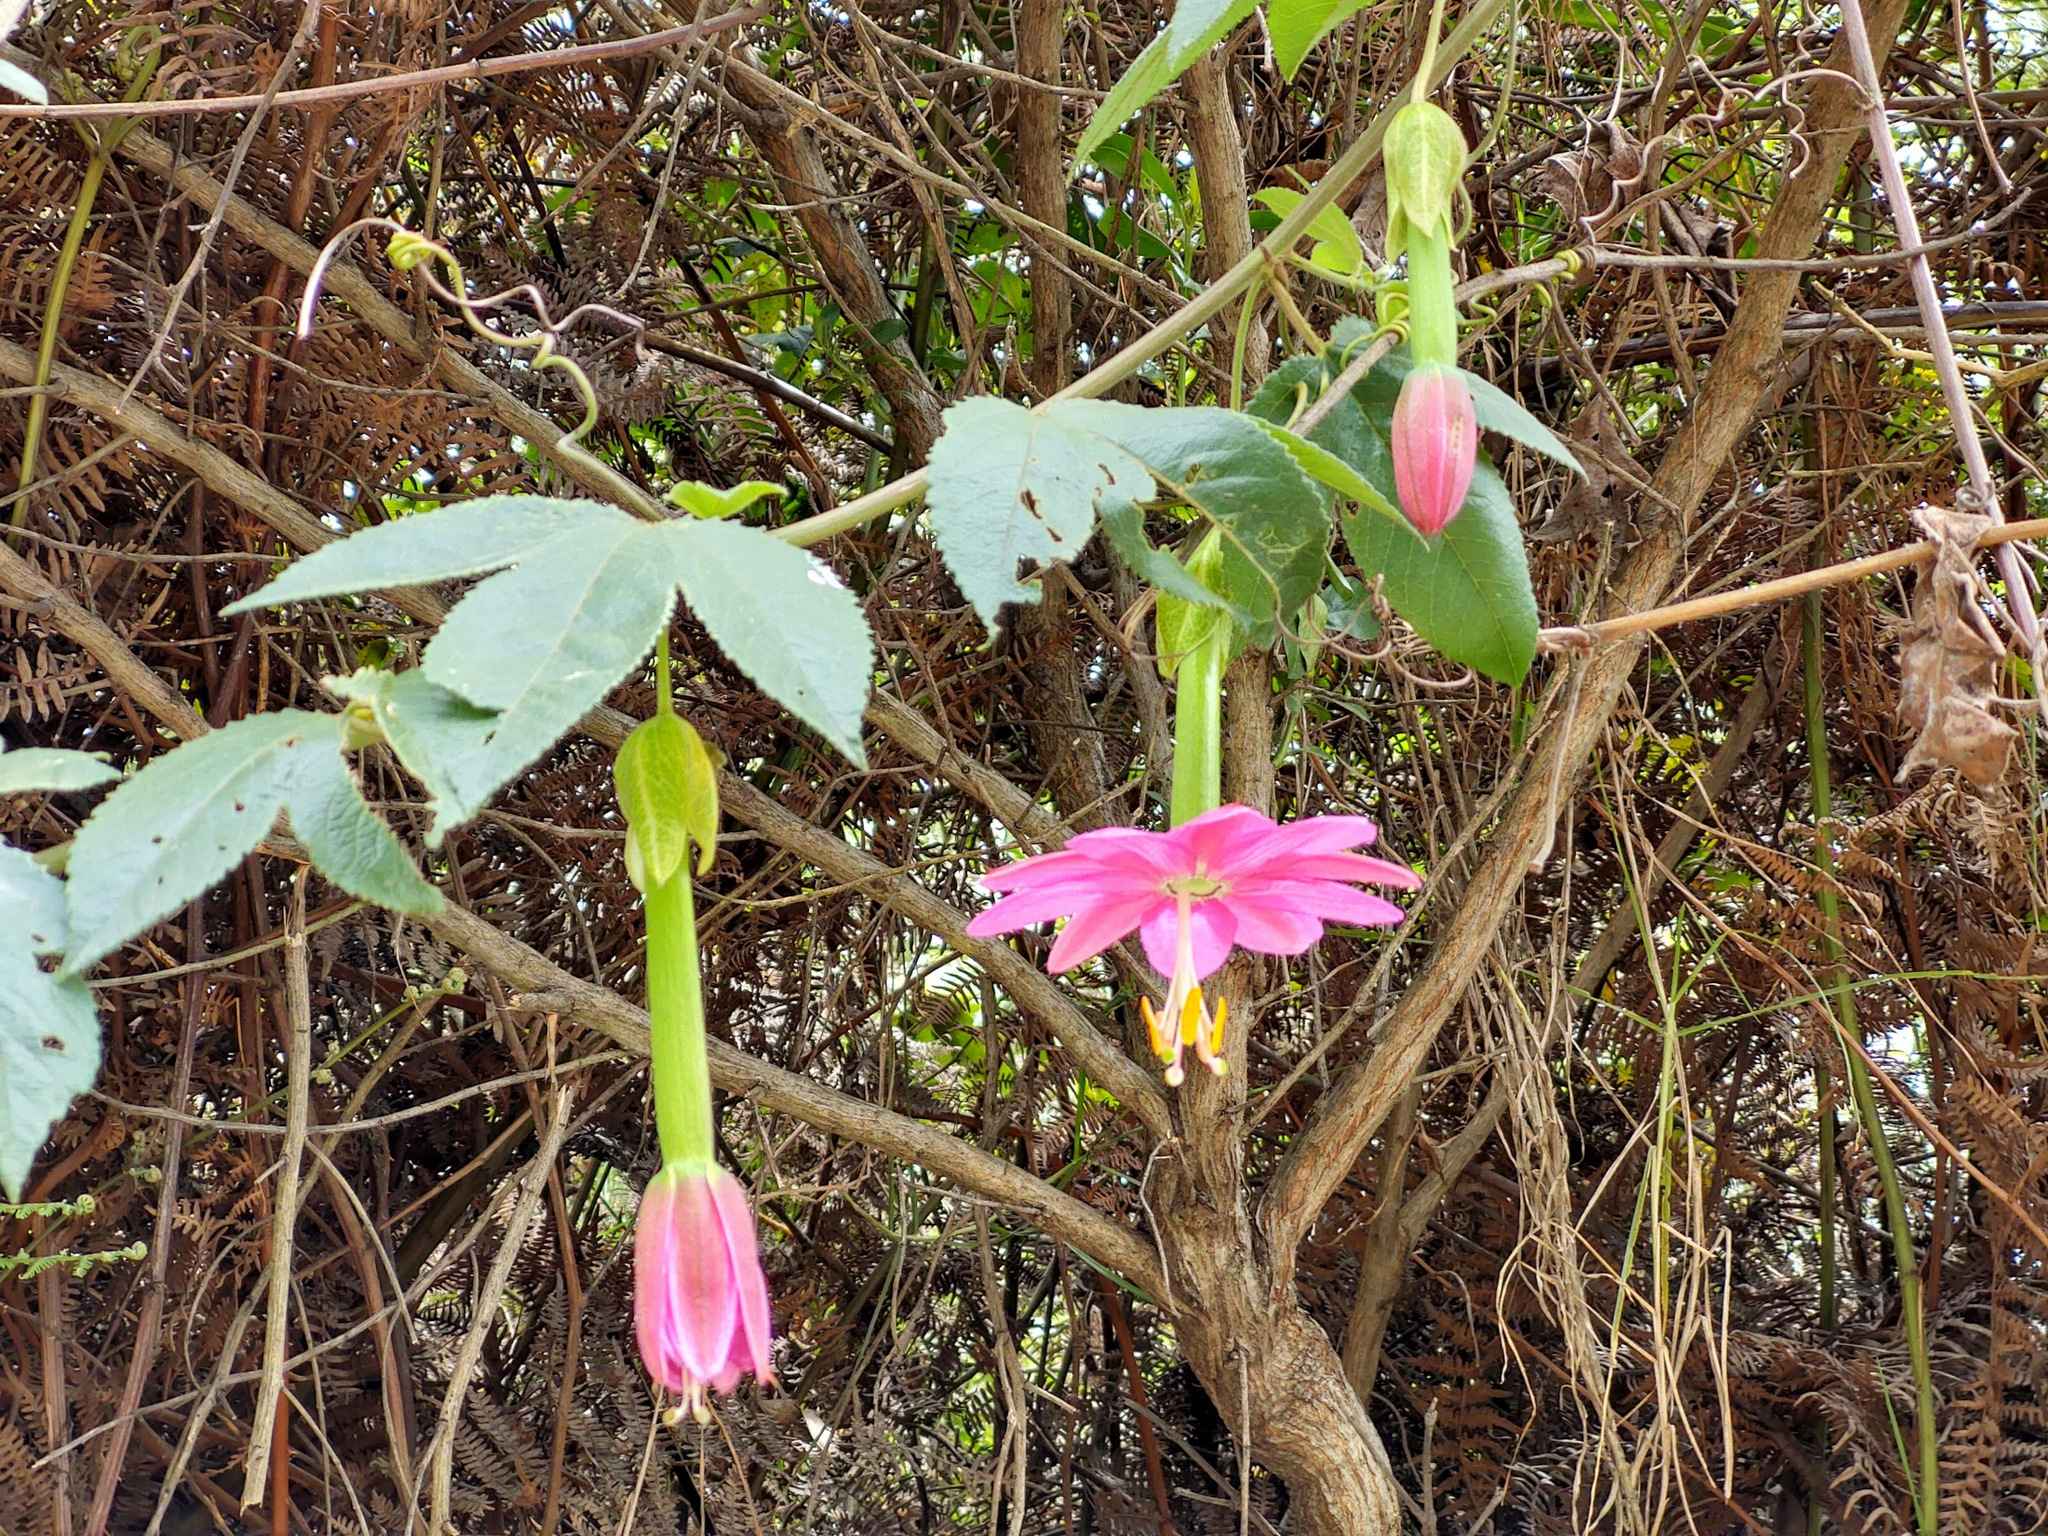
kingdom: Plantae
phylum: Tracheophyta
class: Magnoliopsida
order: Malpighiales
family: Passifloraceae
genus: Passiflora
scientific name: Passiflora tarminiana
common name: Banana poka
